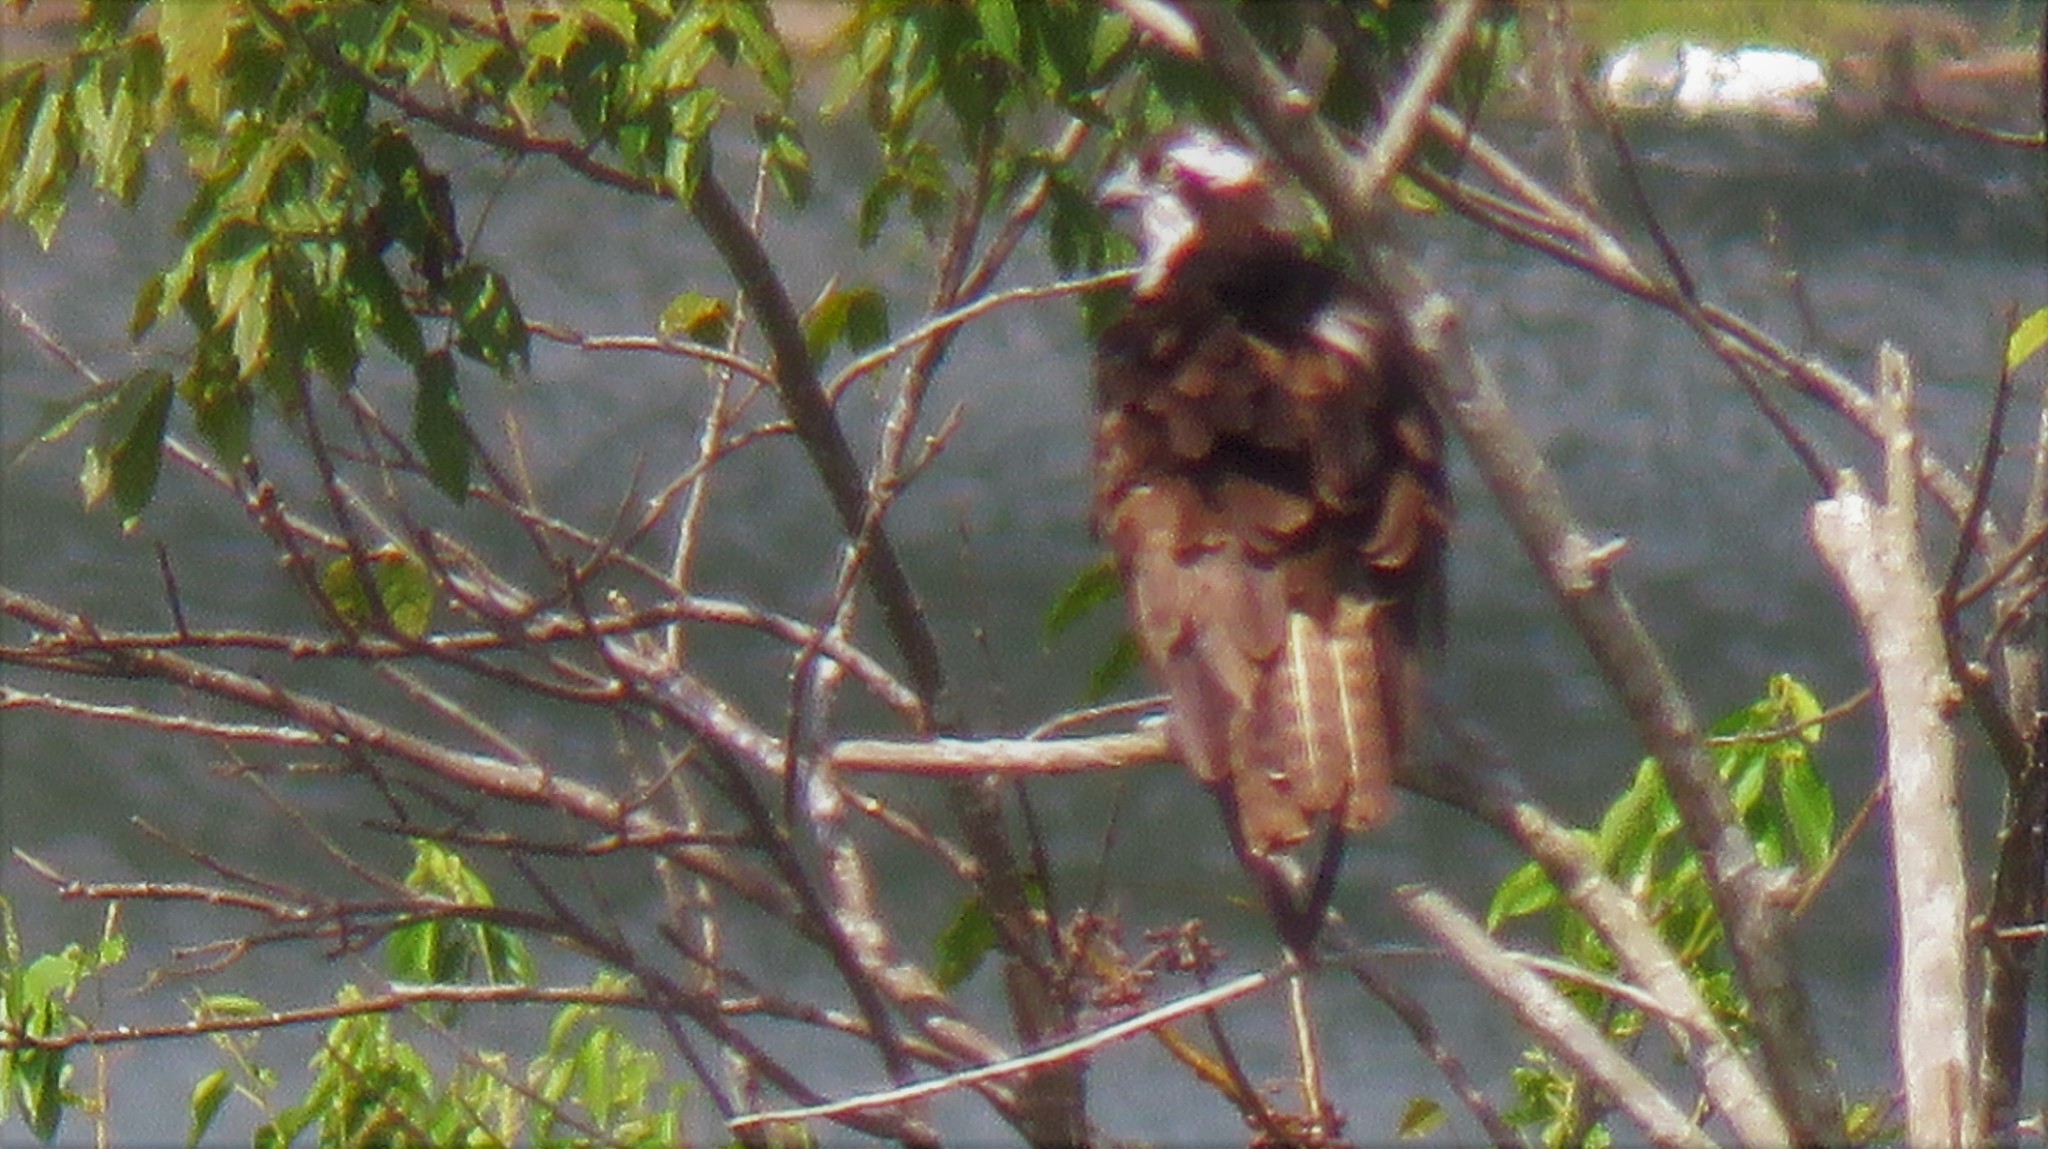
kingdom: Animalia
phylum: Chordata
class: Aves
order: Accipitriformes
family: Pandionidae
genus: Pandion
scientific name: Pandion haliaetus
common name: Osprey
